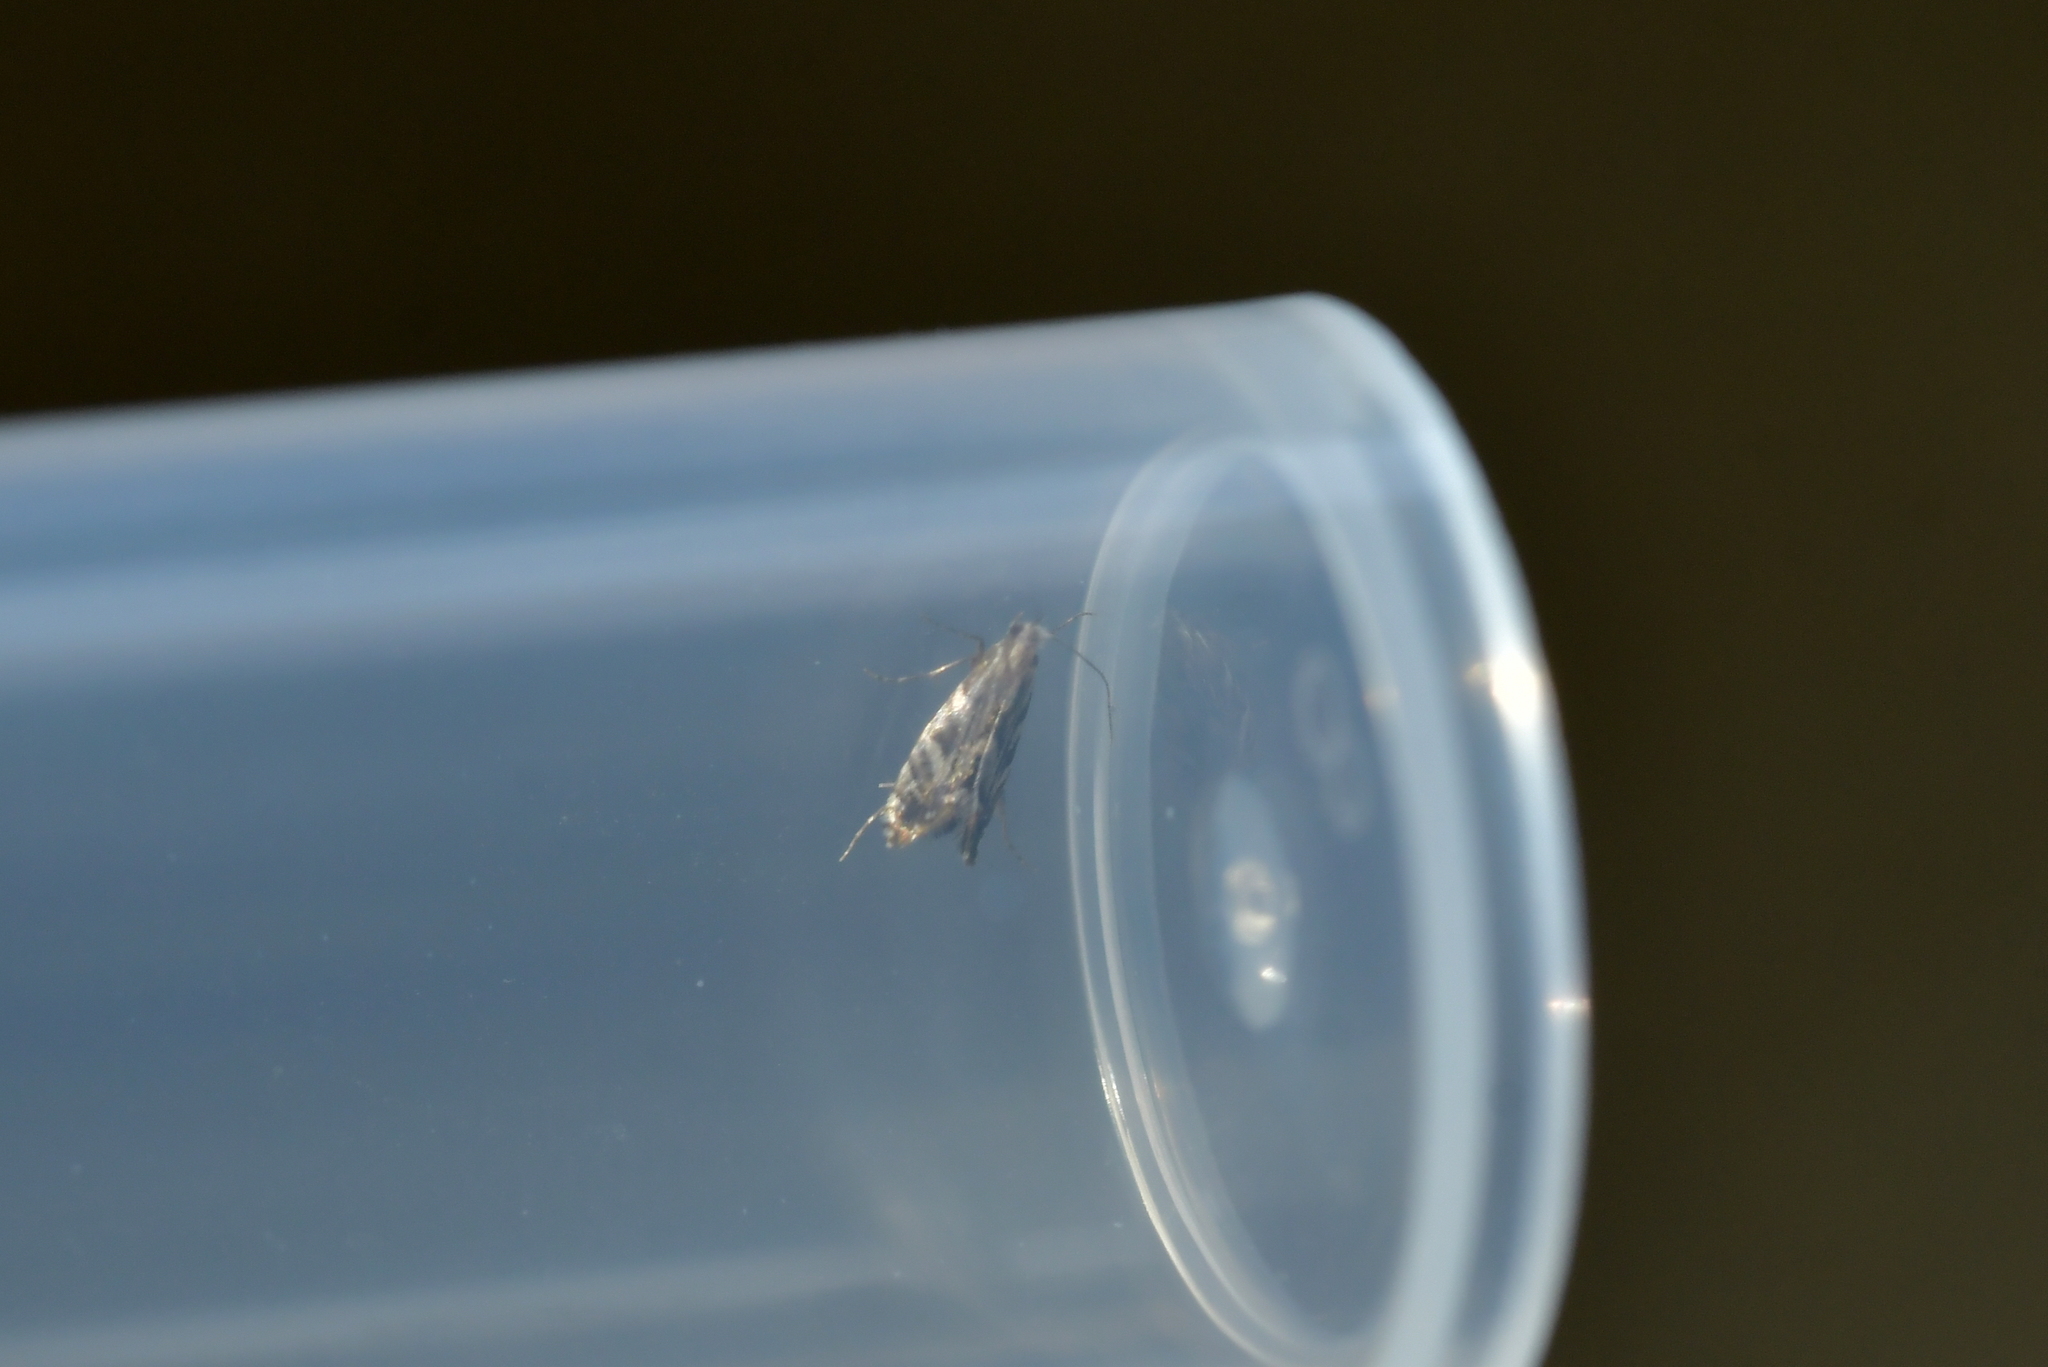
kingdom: Animalia
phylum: Arthropoda
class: Insecta
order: Lepidoptera
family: Tineidae
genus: Tinea
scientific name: Tinea accusatrix
